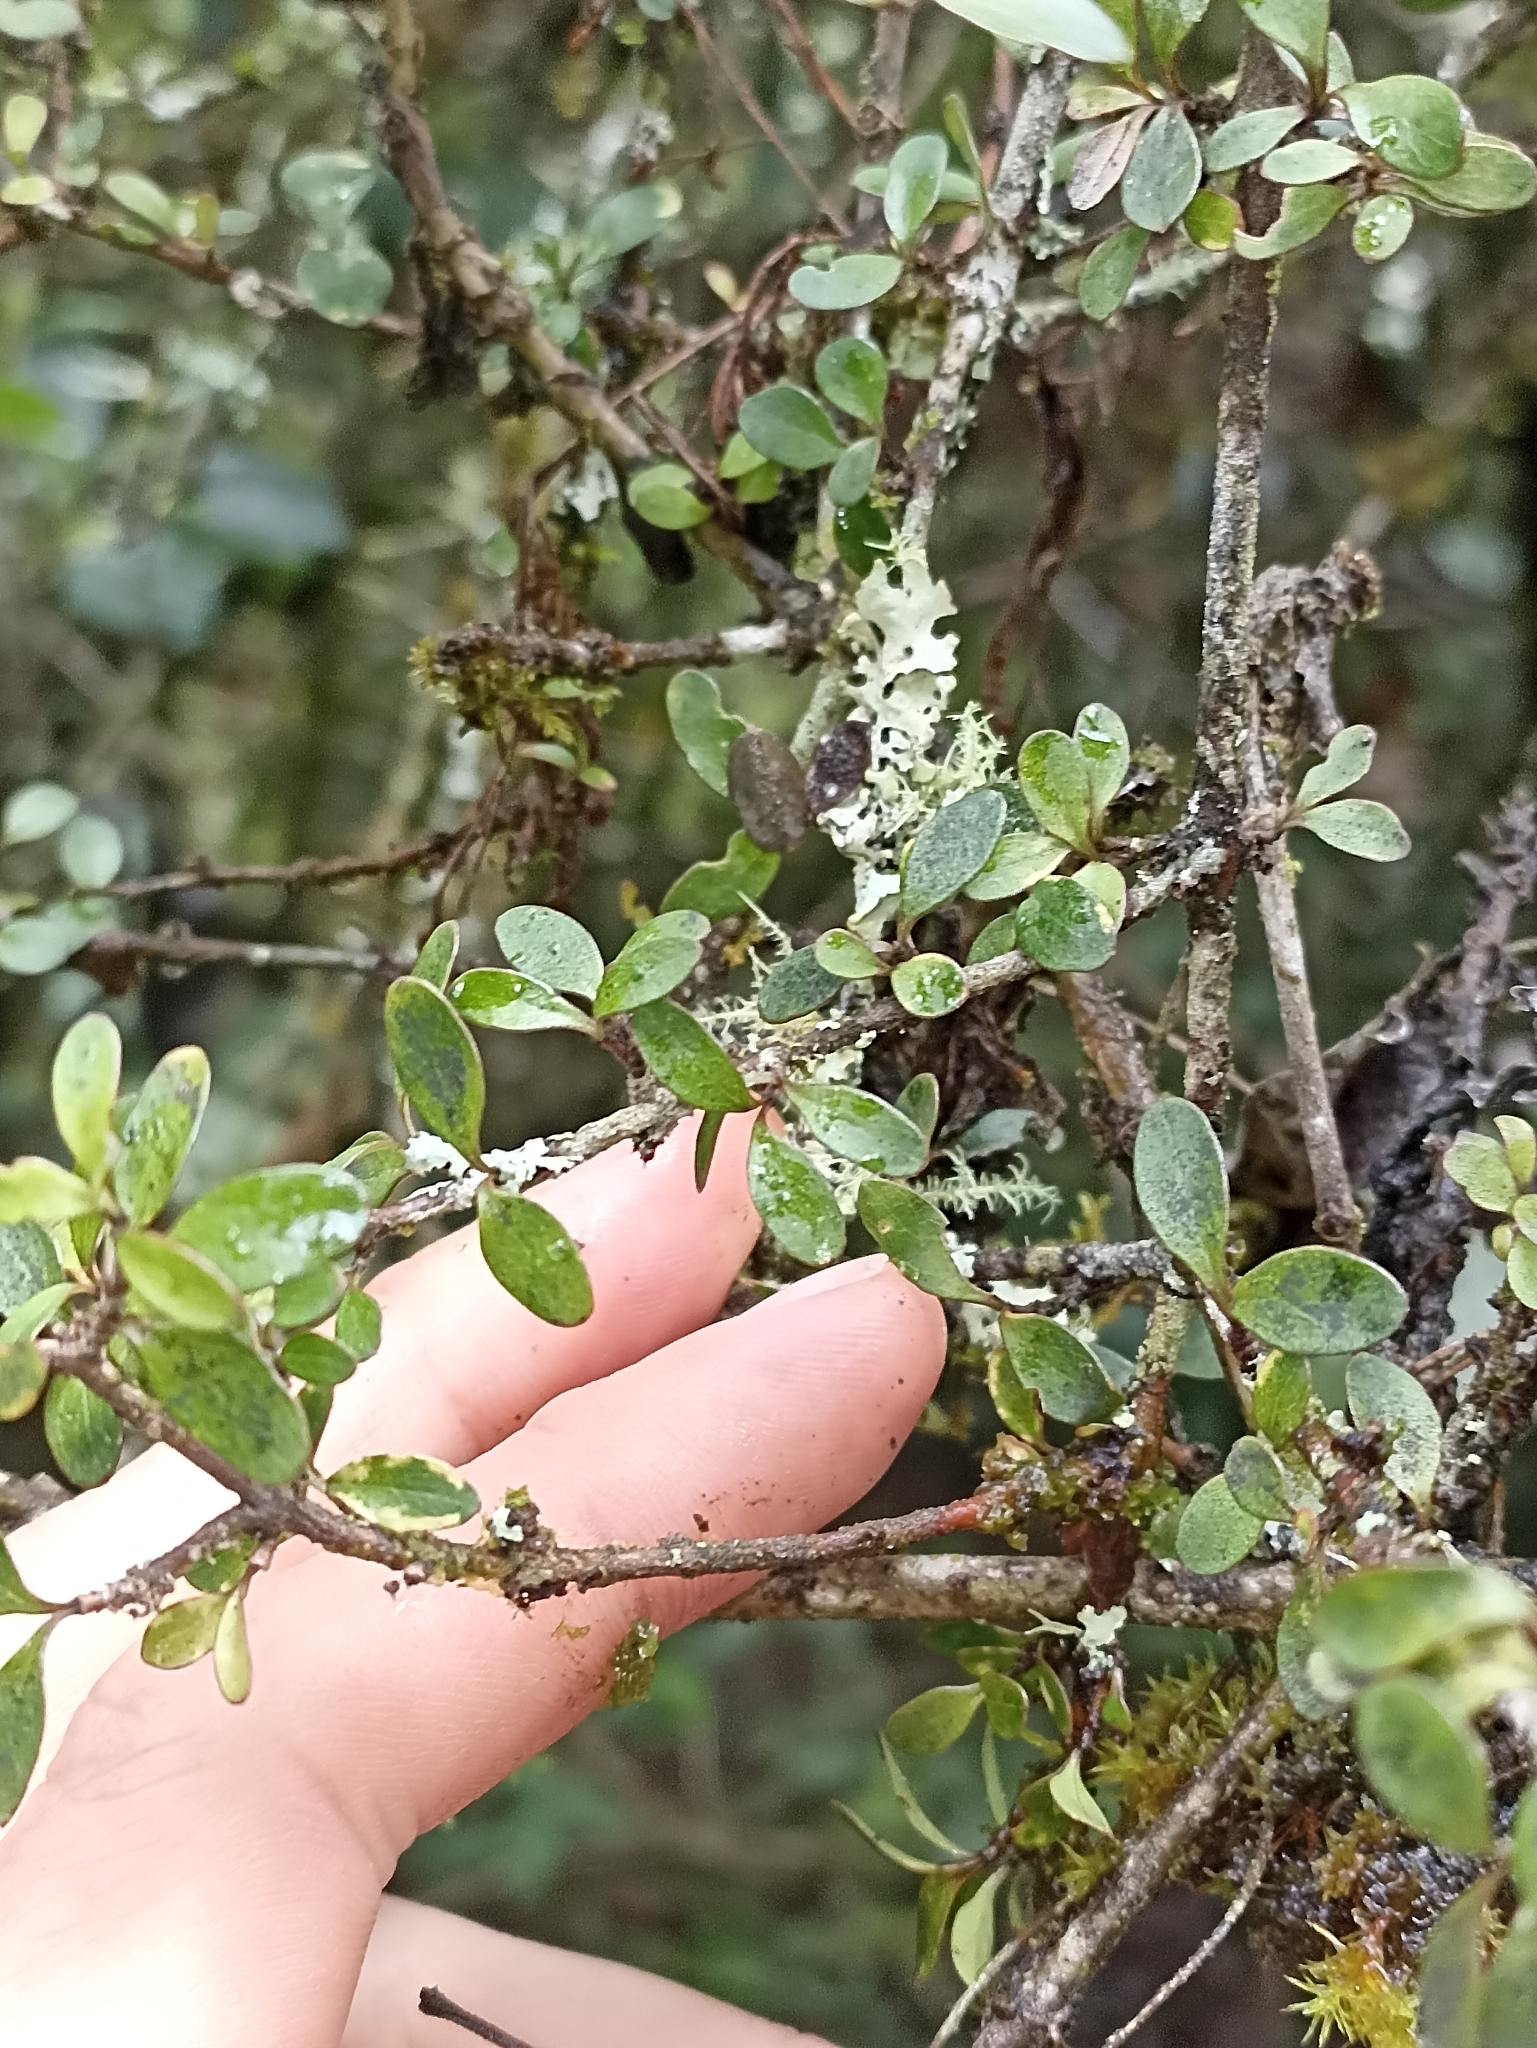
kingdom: Plantae
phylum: Tracheophyta
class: Magnoliopsida
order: Gentianales
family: Rubiaceae
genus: Coprosma
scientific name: Coprosma rigida
